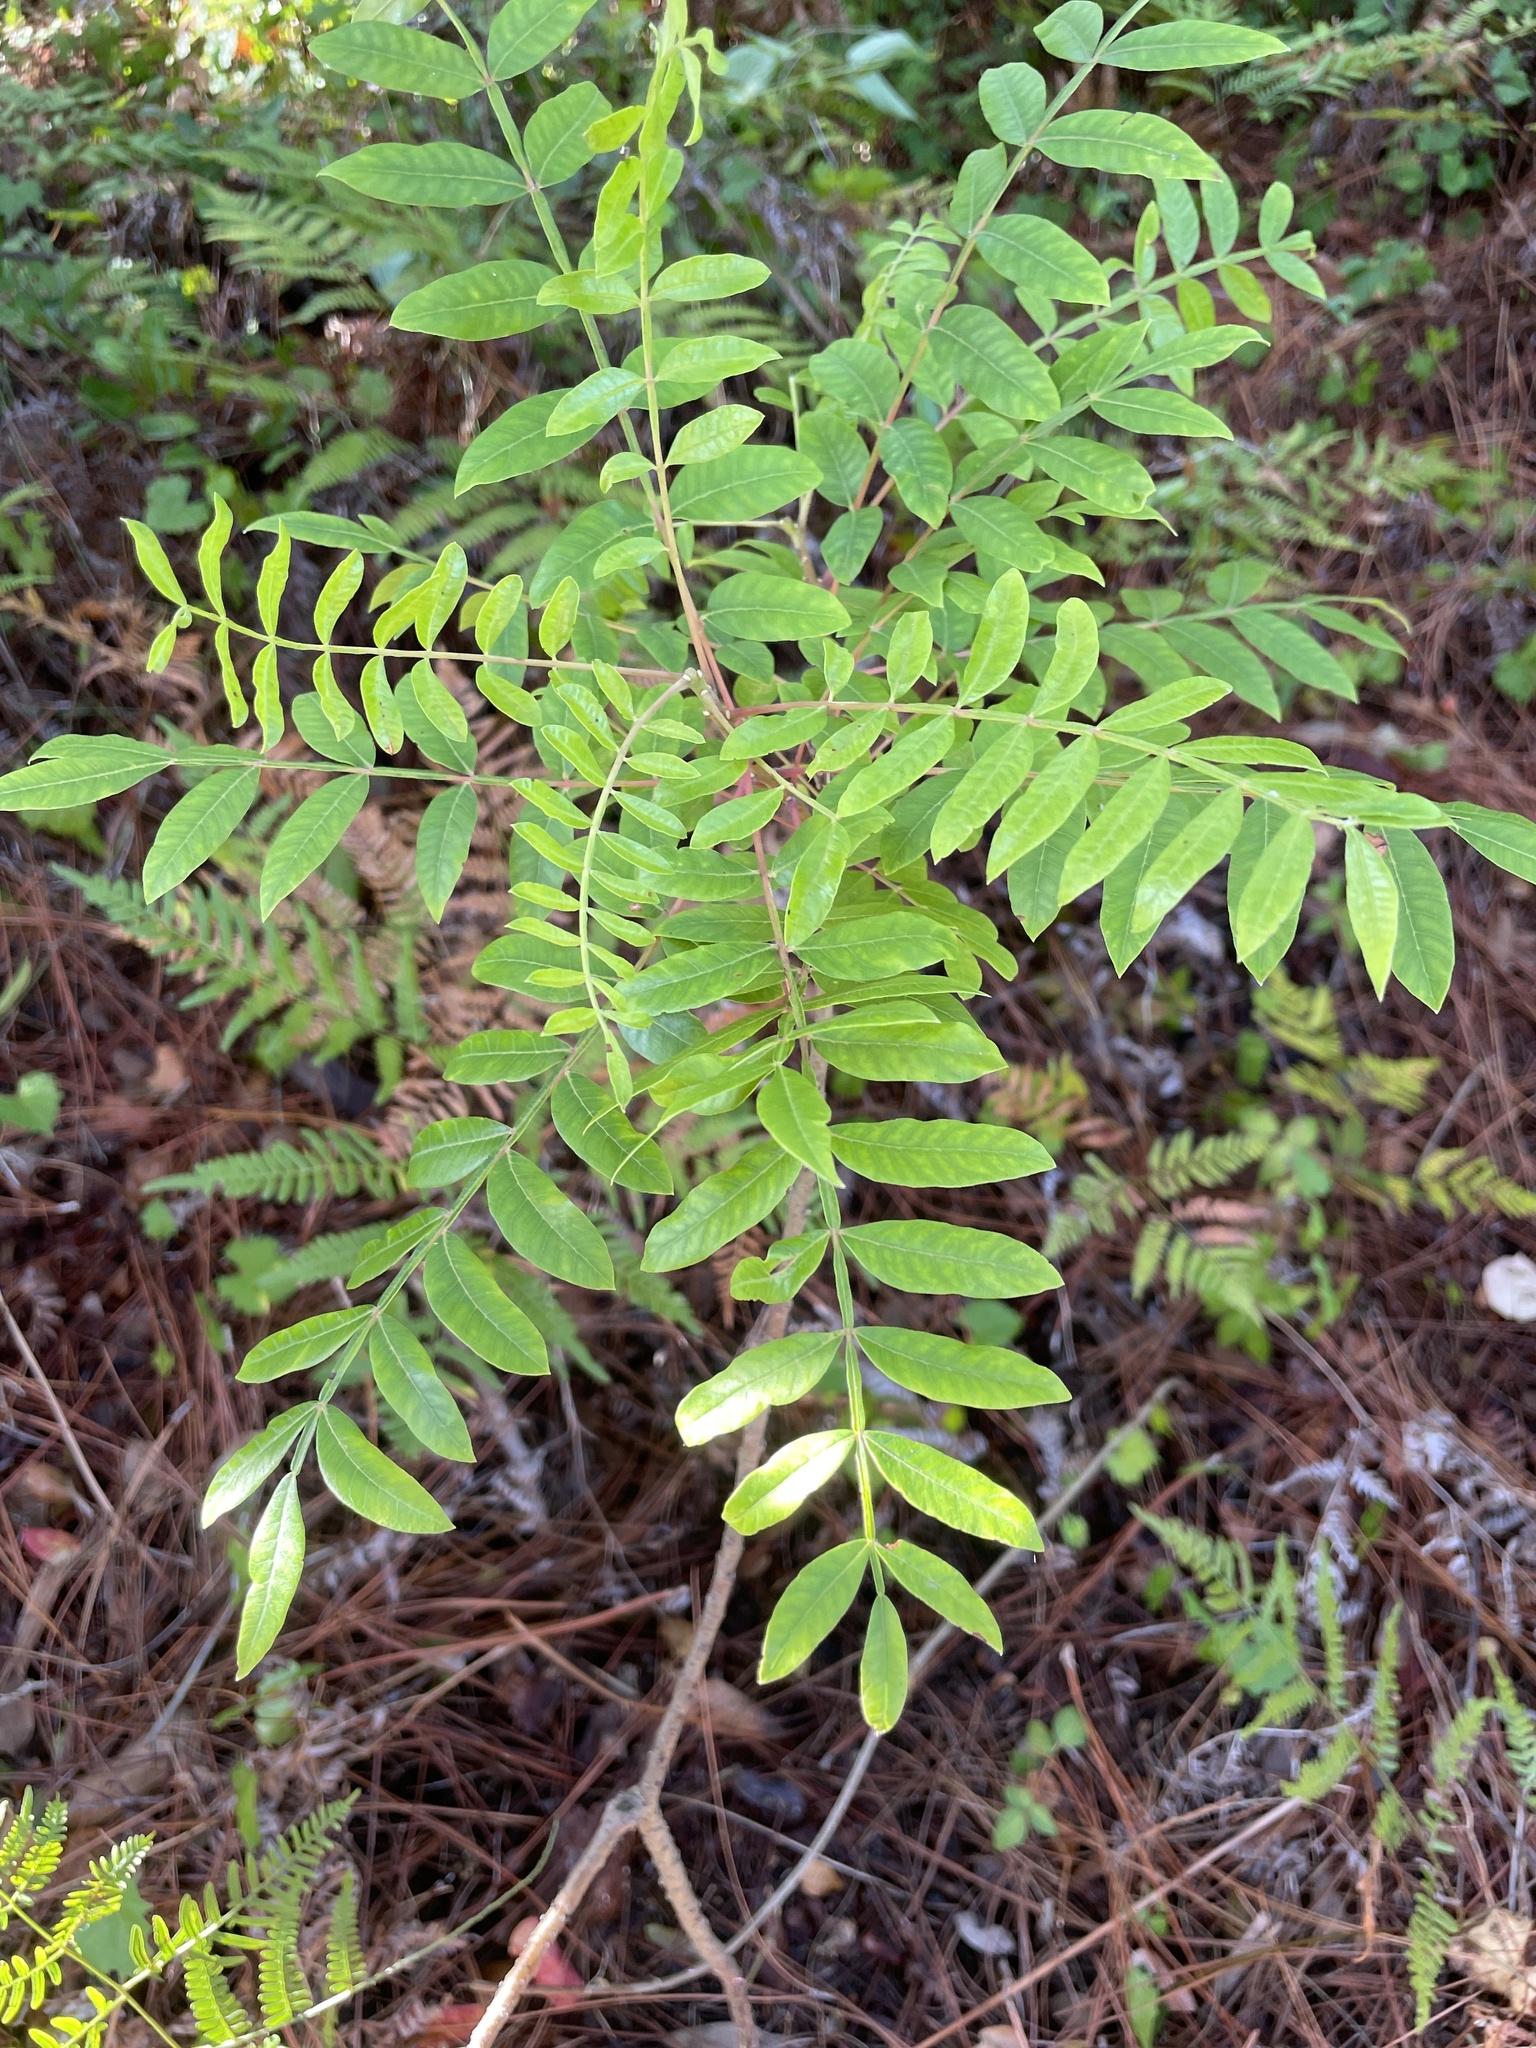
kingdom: Plantae
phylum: Tracheophyta
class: Magnoliopsida
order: Sapindales
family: Anacardiaceae
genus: Rhus
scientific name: Rhus copallina
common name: Shining sumac
